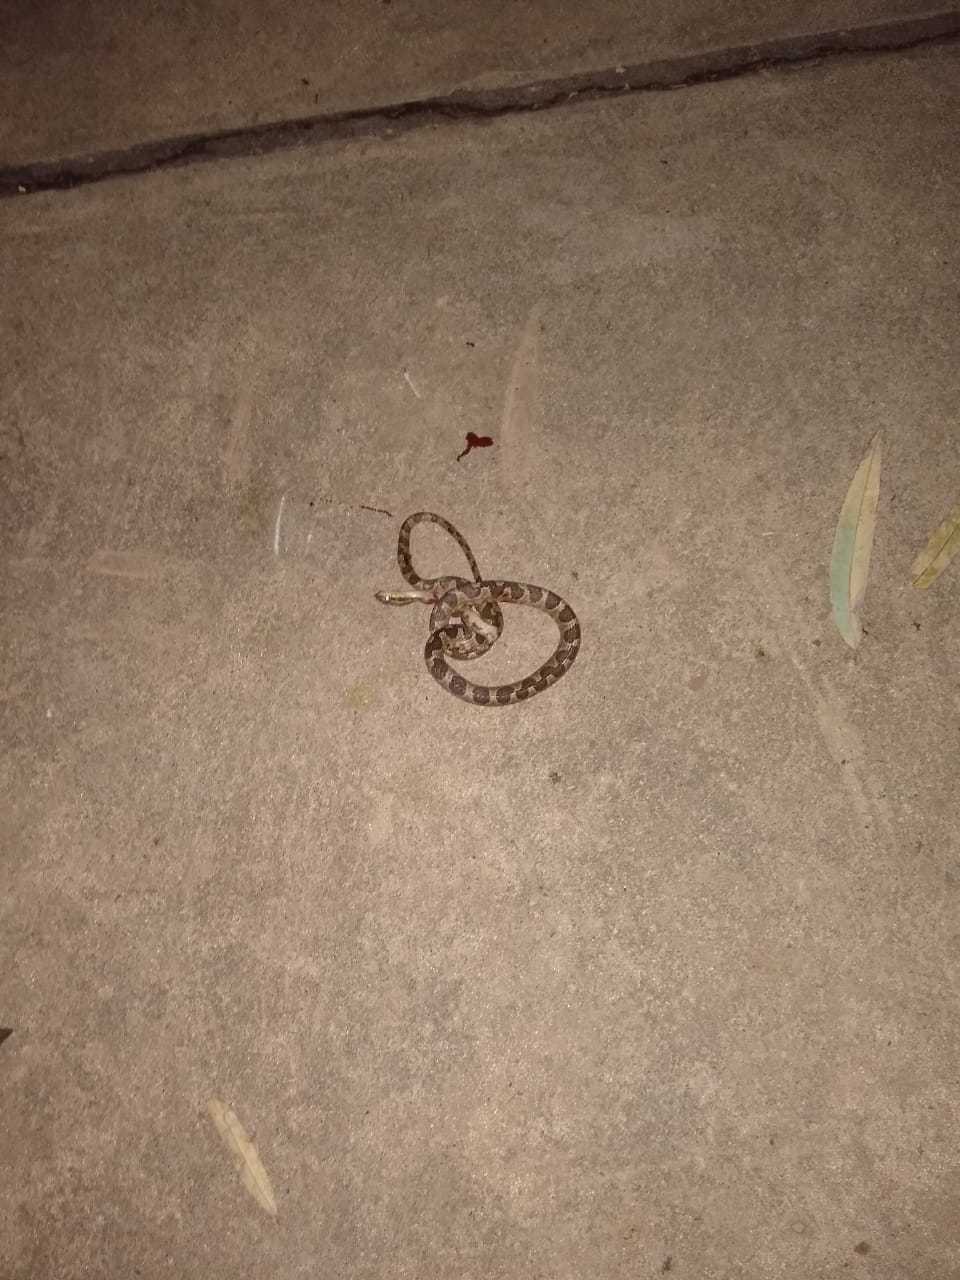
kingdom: Animalia
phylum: Chordata
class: Squamata
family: Colubridae
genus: Leptodeira
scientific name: Leptodeira annulata
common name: Banded cat-eyed snake
